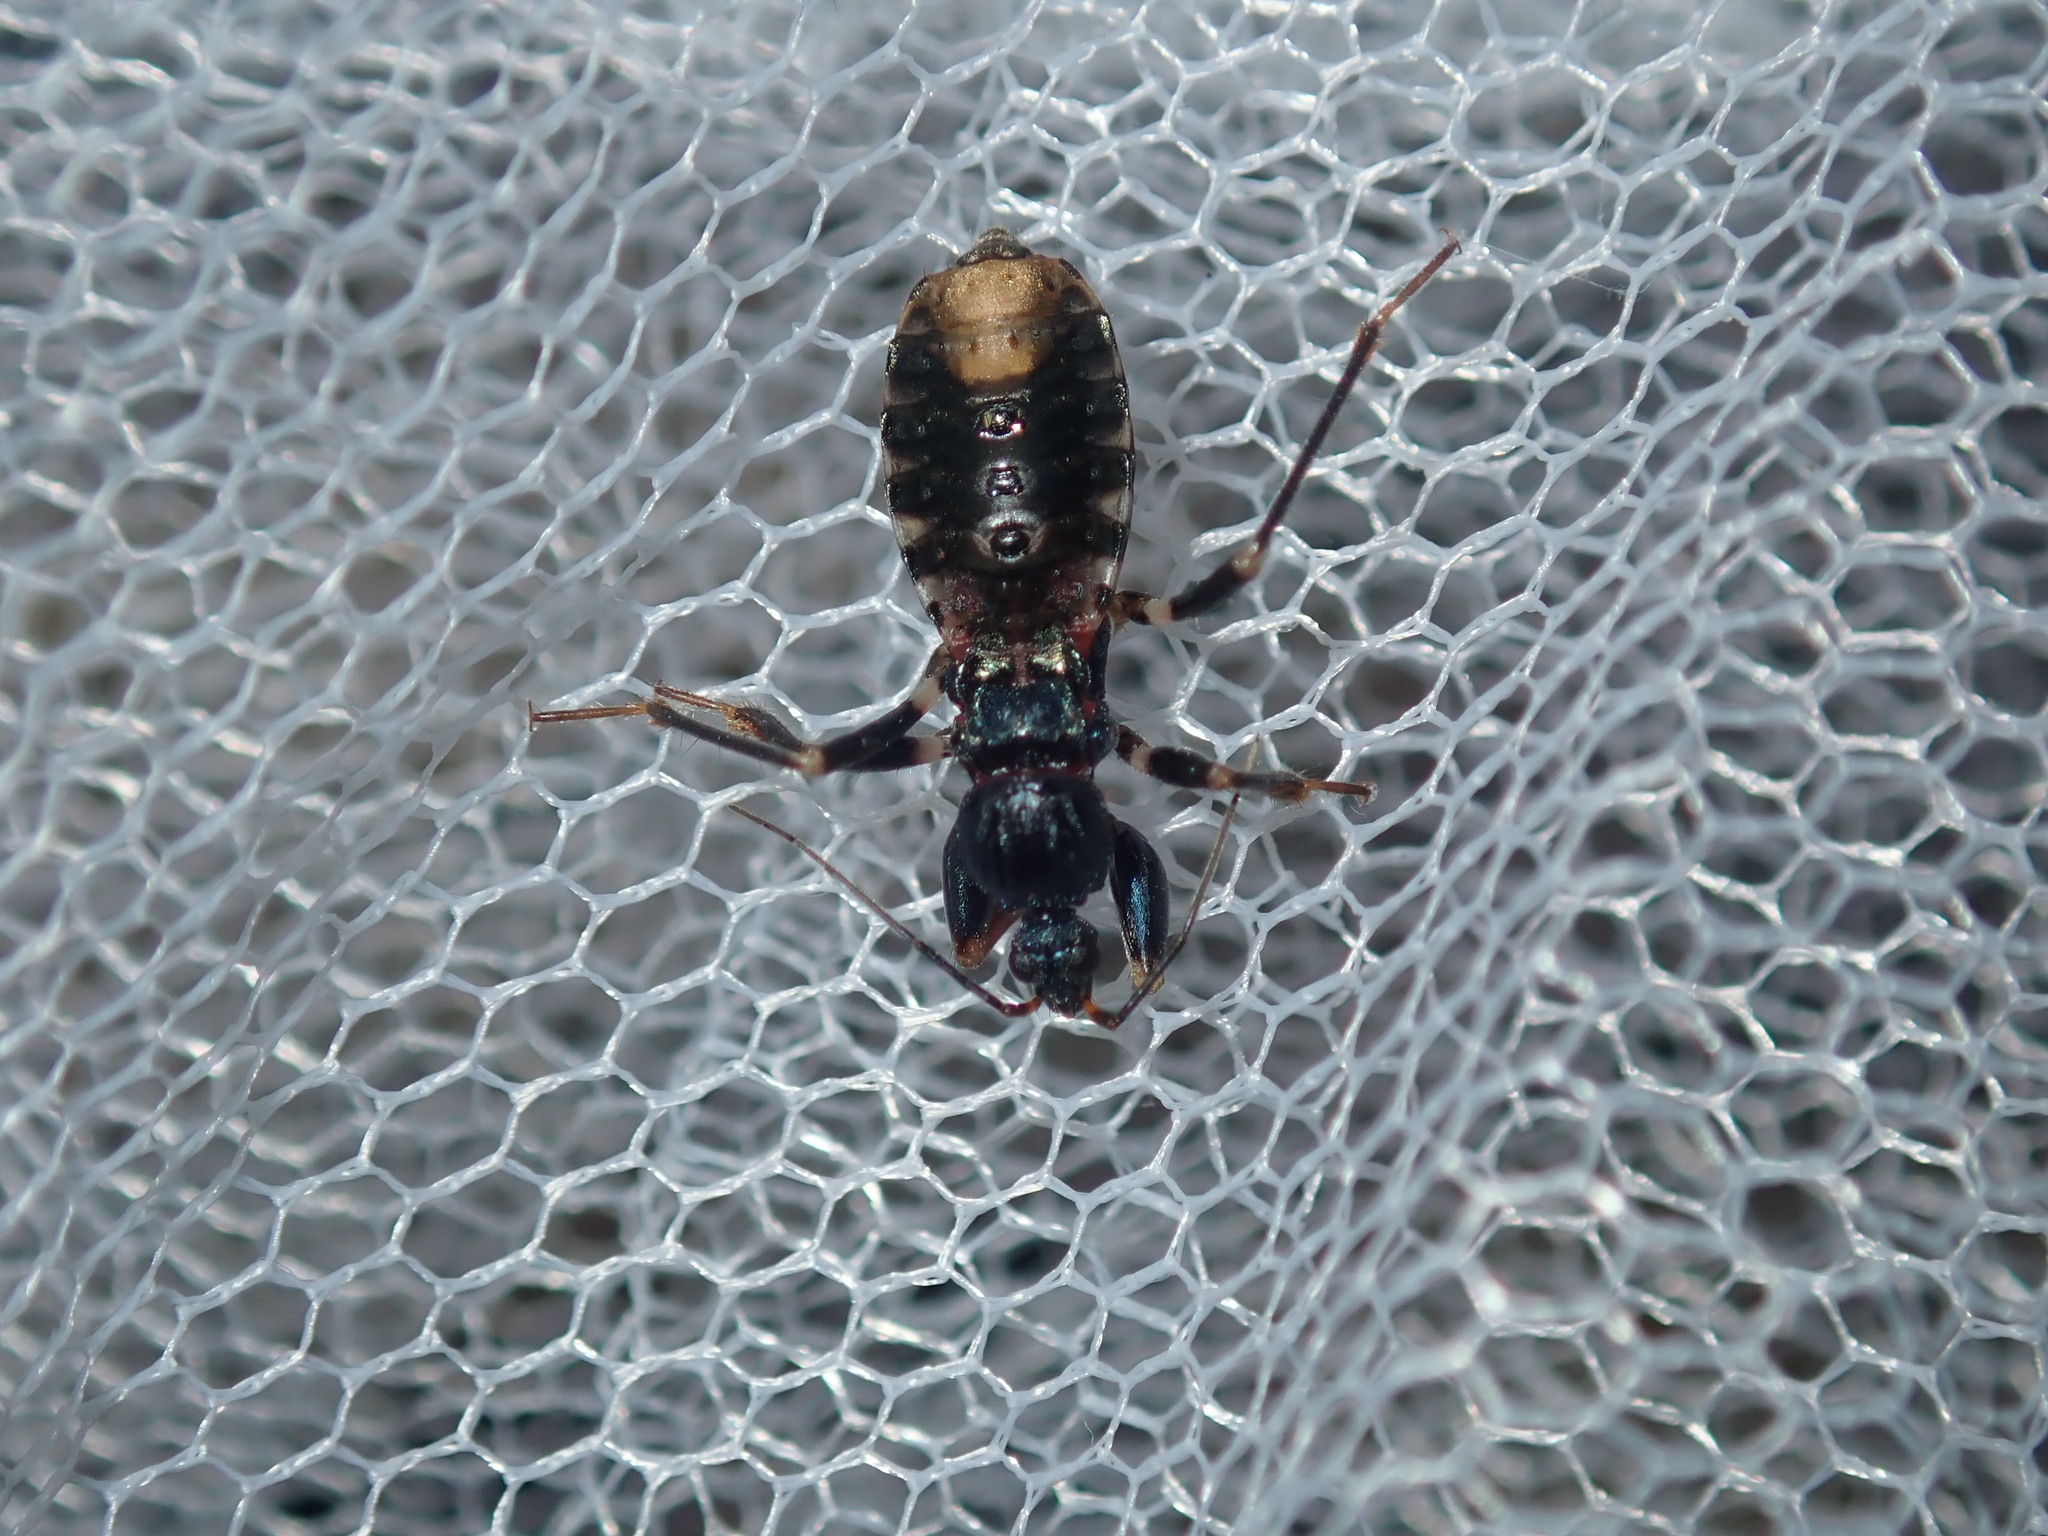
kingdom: Animalia
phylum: Arthropoda
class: Insecta
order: Hemiptera
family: Reduviidae
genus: Ectomocoris
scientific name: Ectomocoris decoratus
